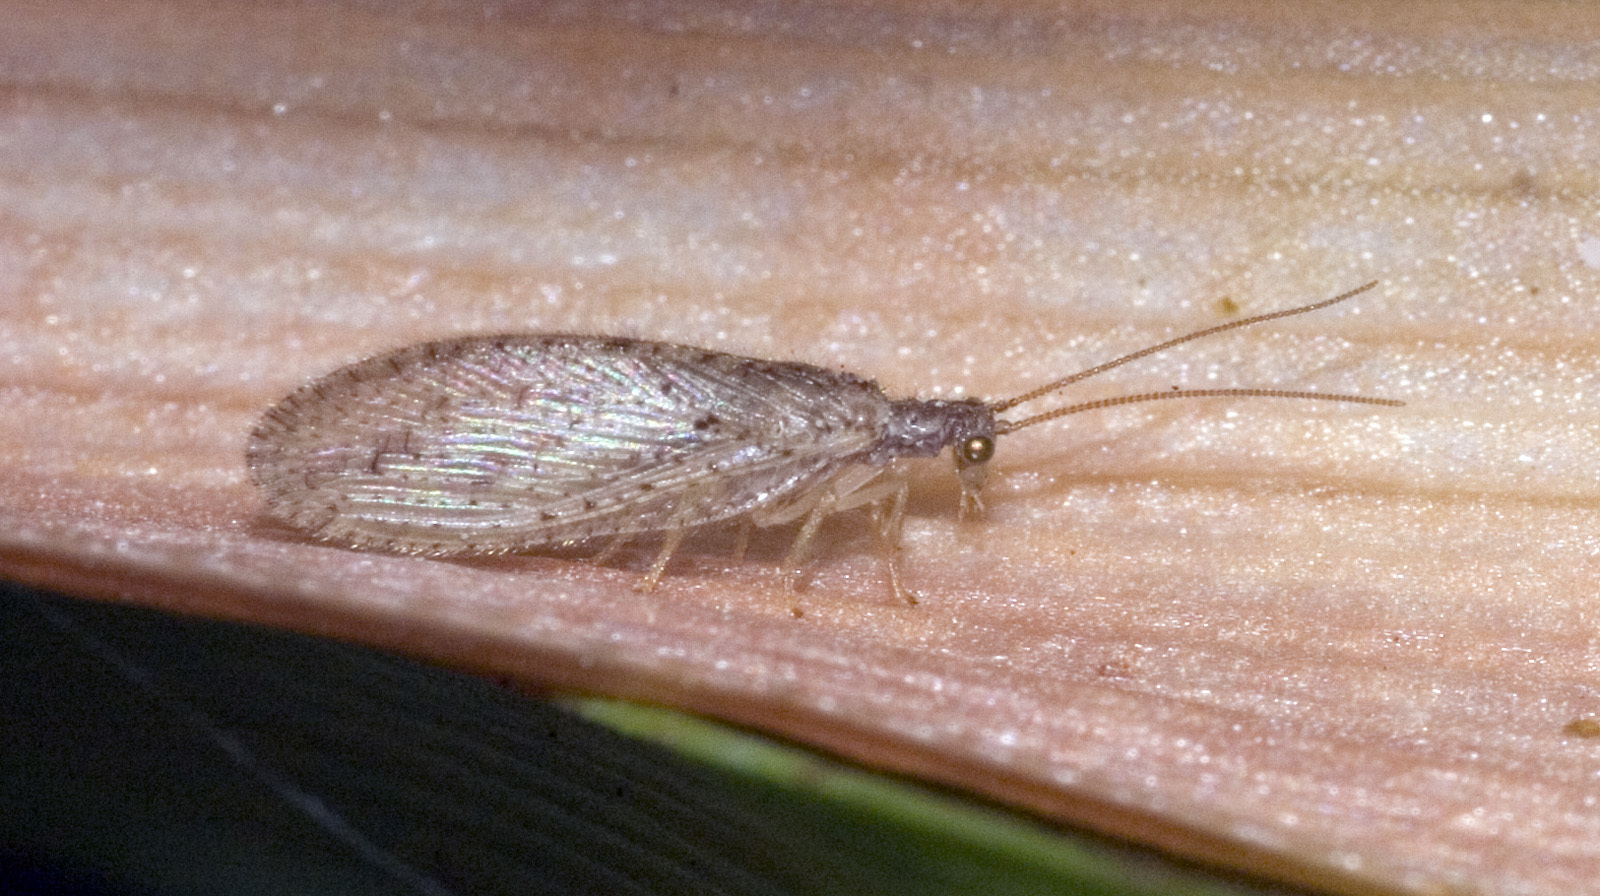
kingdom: Animalia
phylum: Arthropoda
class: Insecta
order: Neuroptera
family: Hemerobiidae
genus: Micromus
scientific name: Micromus tasmaniae
